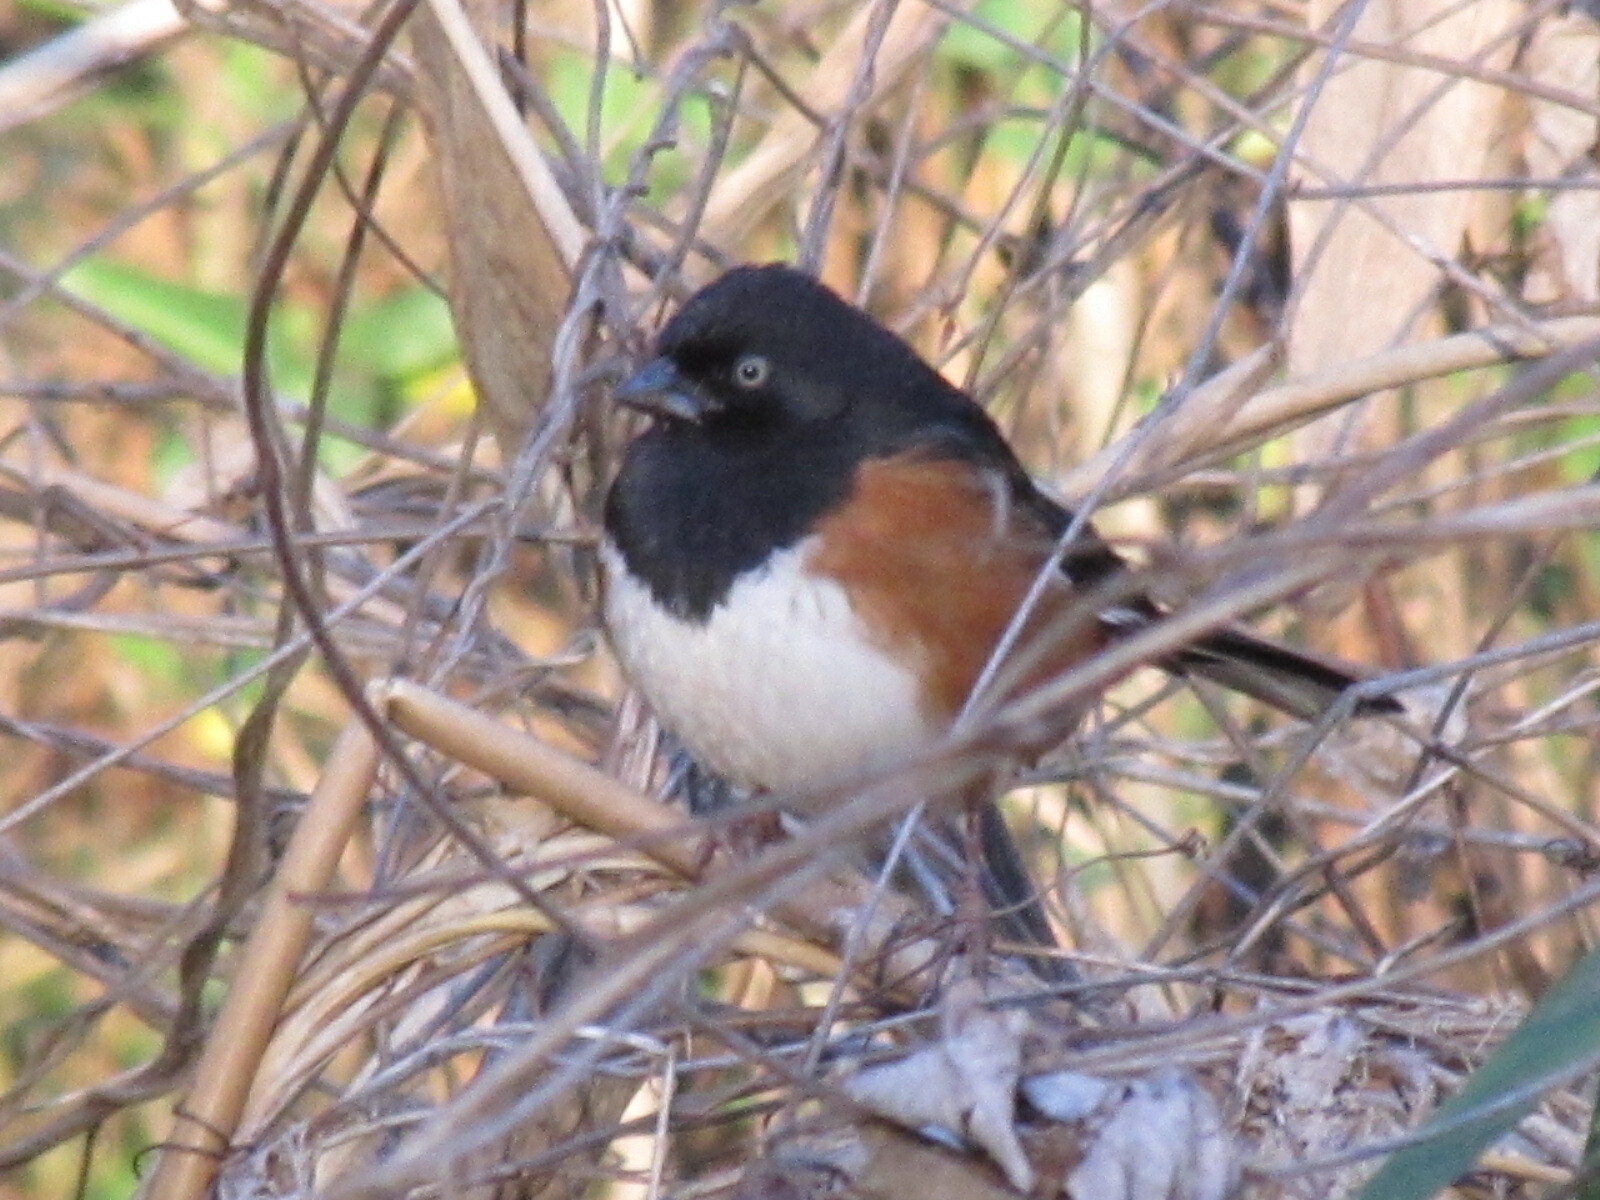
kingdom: Animalia
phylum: Chordata
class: Aves
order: Passeriformes
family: Passerellidae
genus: Pipilo
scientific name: Pipilo erythrophthalmus
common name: Eastern towhee
